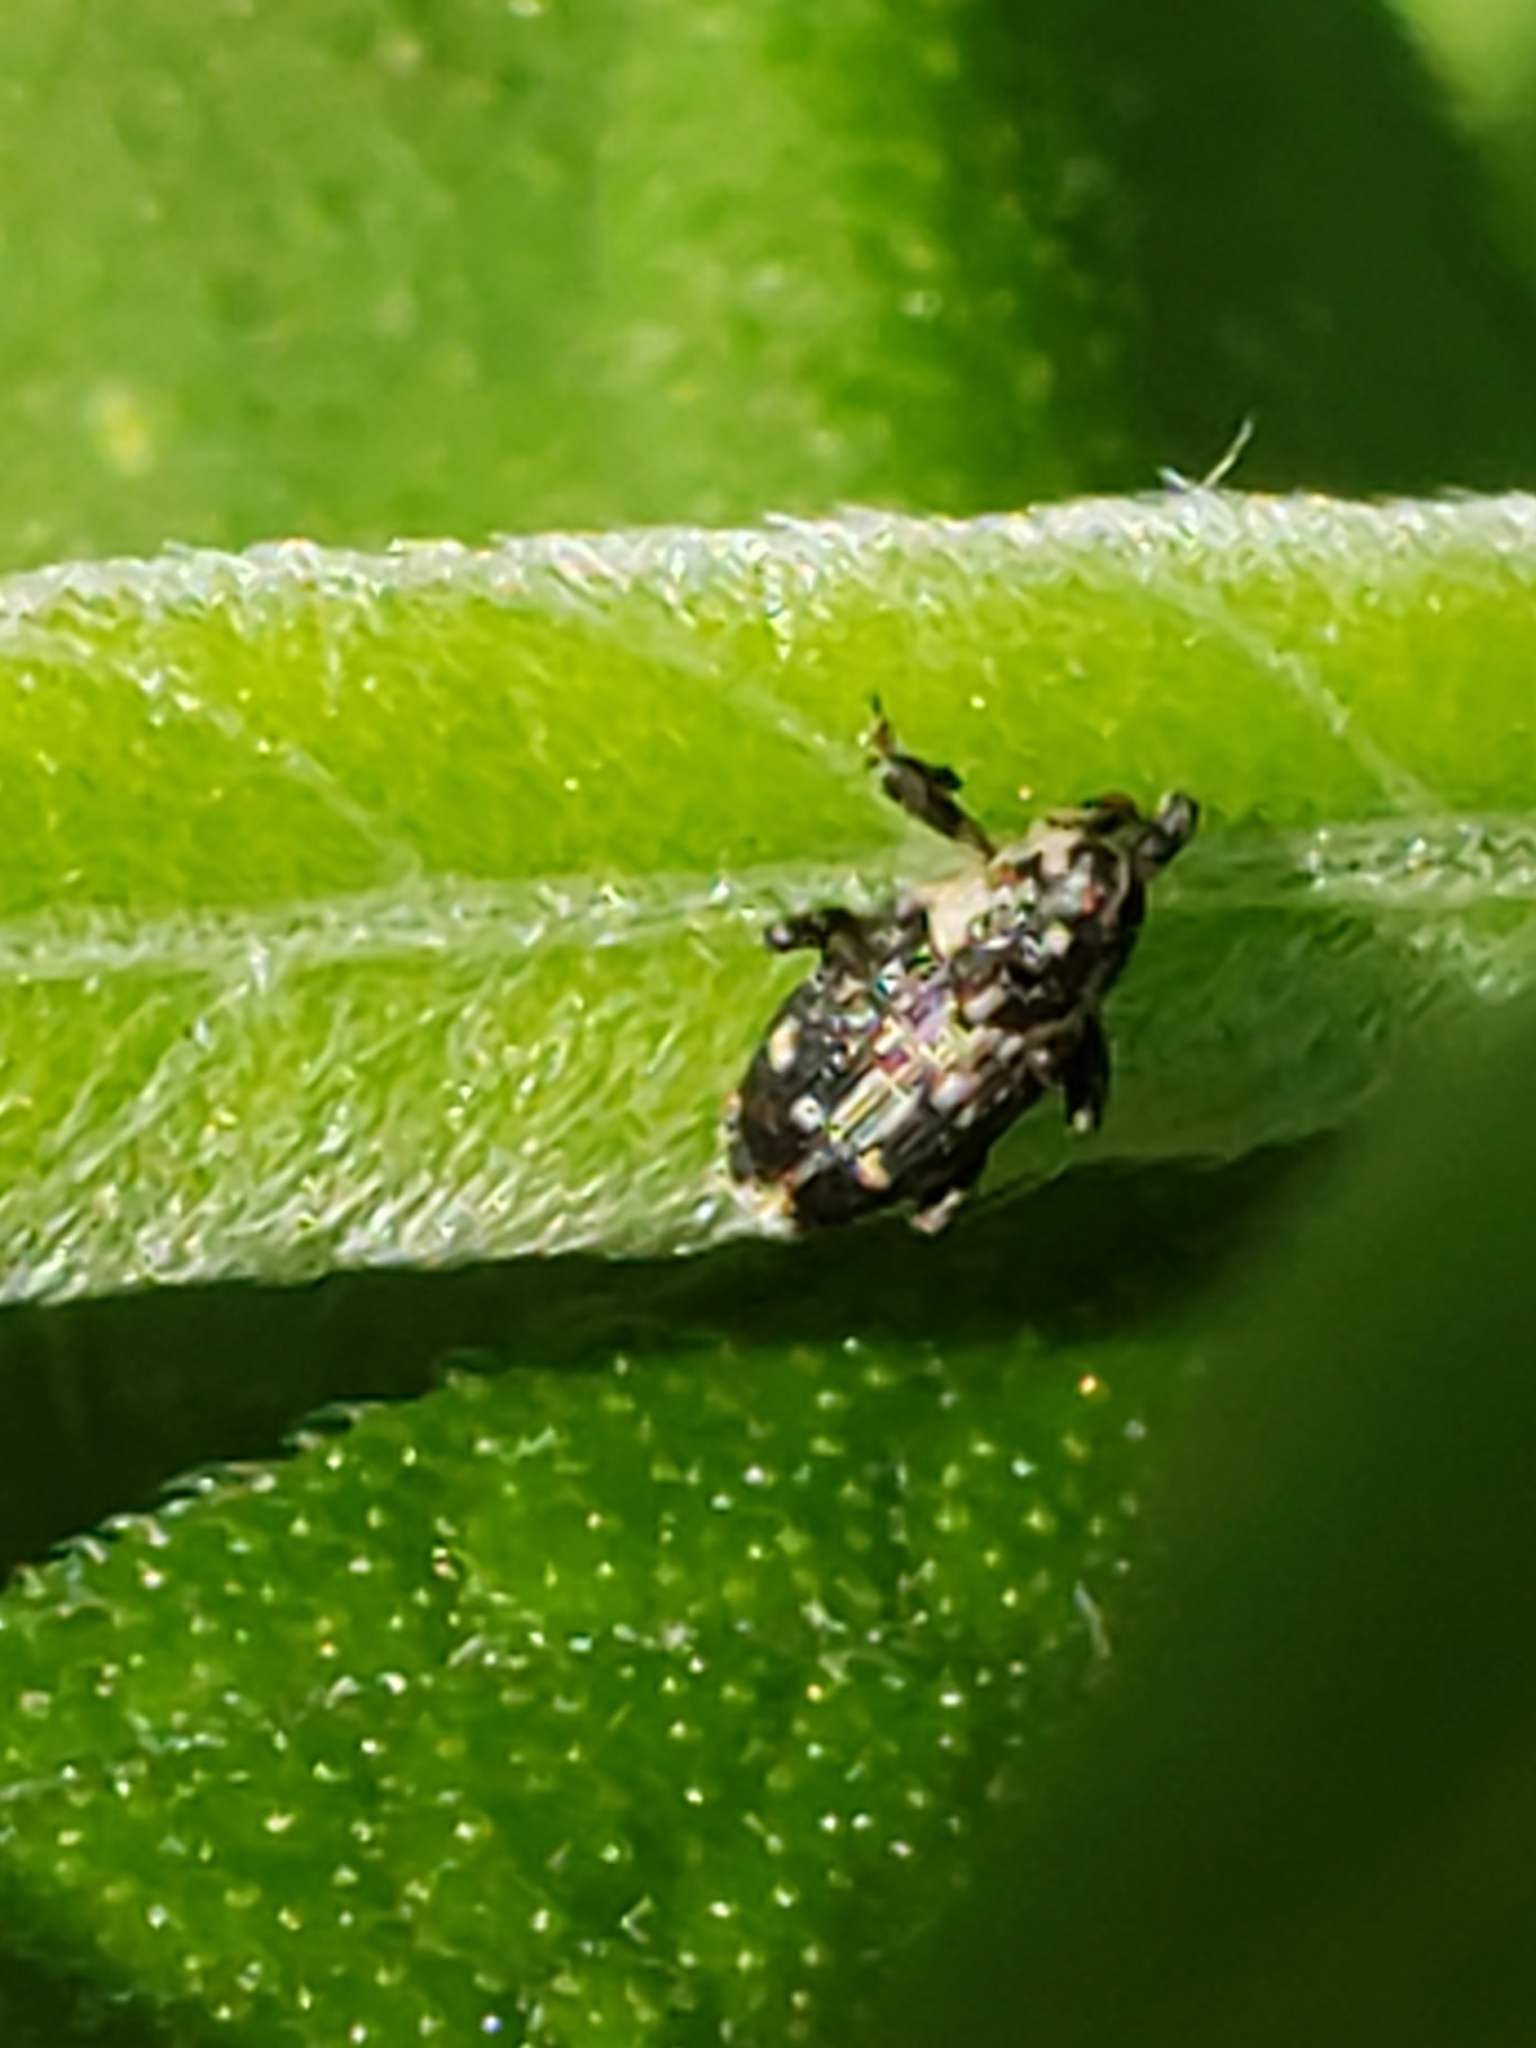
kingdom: Animalia
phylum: Arthropoda
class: Insecta
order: Coleoptera
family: Curculionidae
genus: Cylindrocopturus
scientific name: Cylindrocopturus quercus
